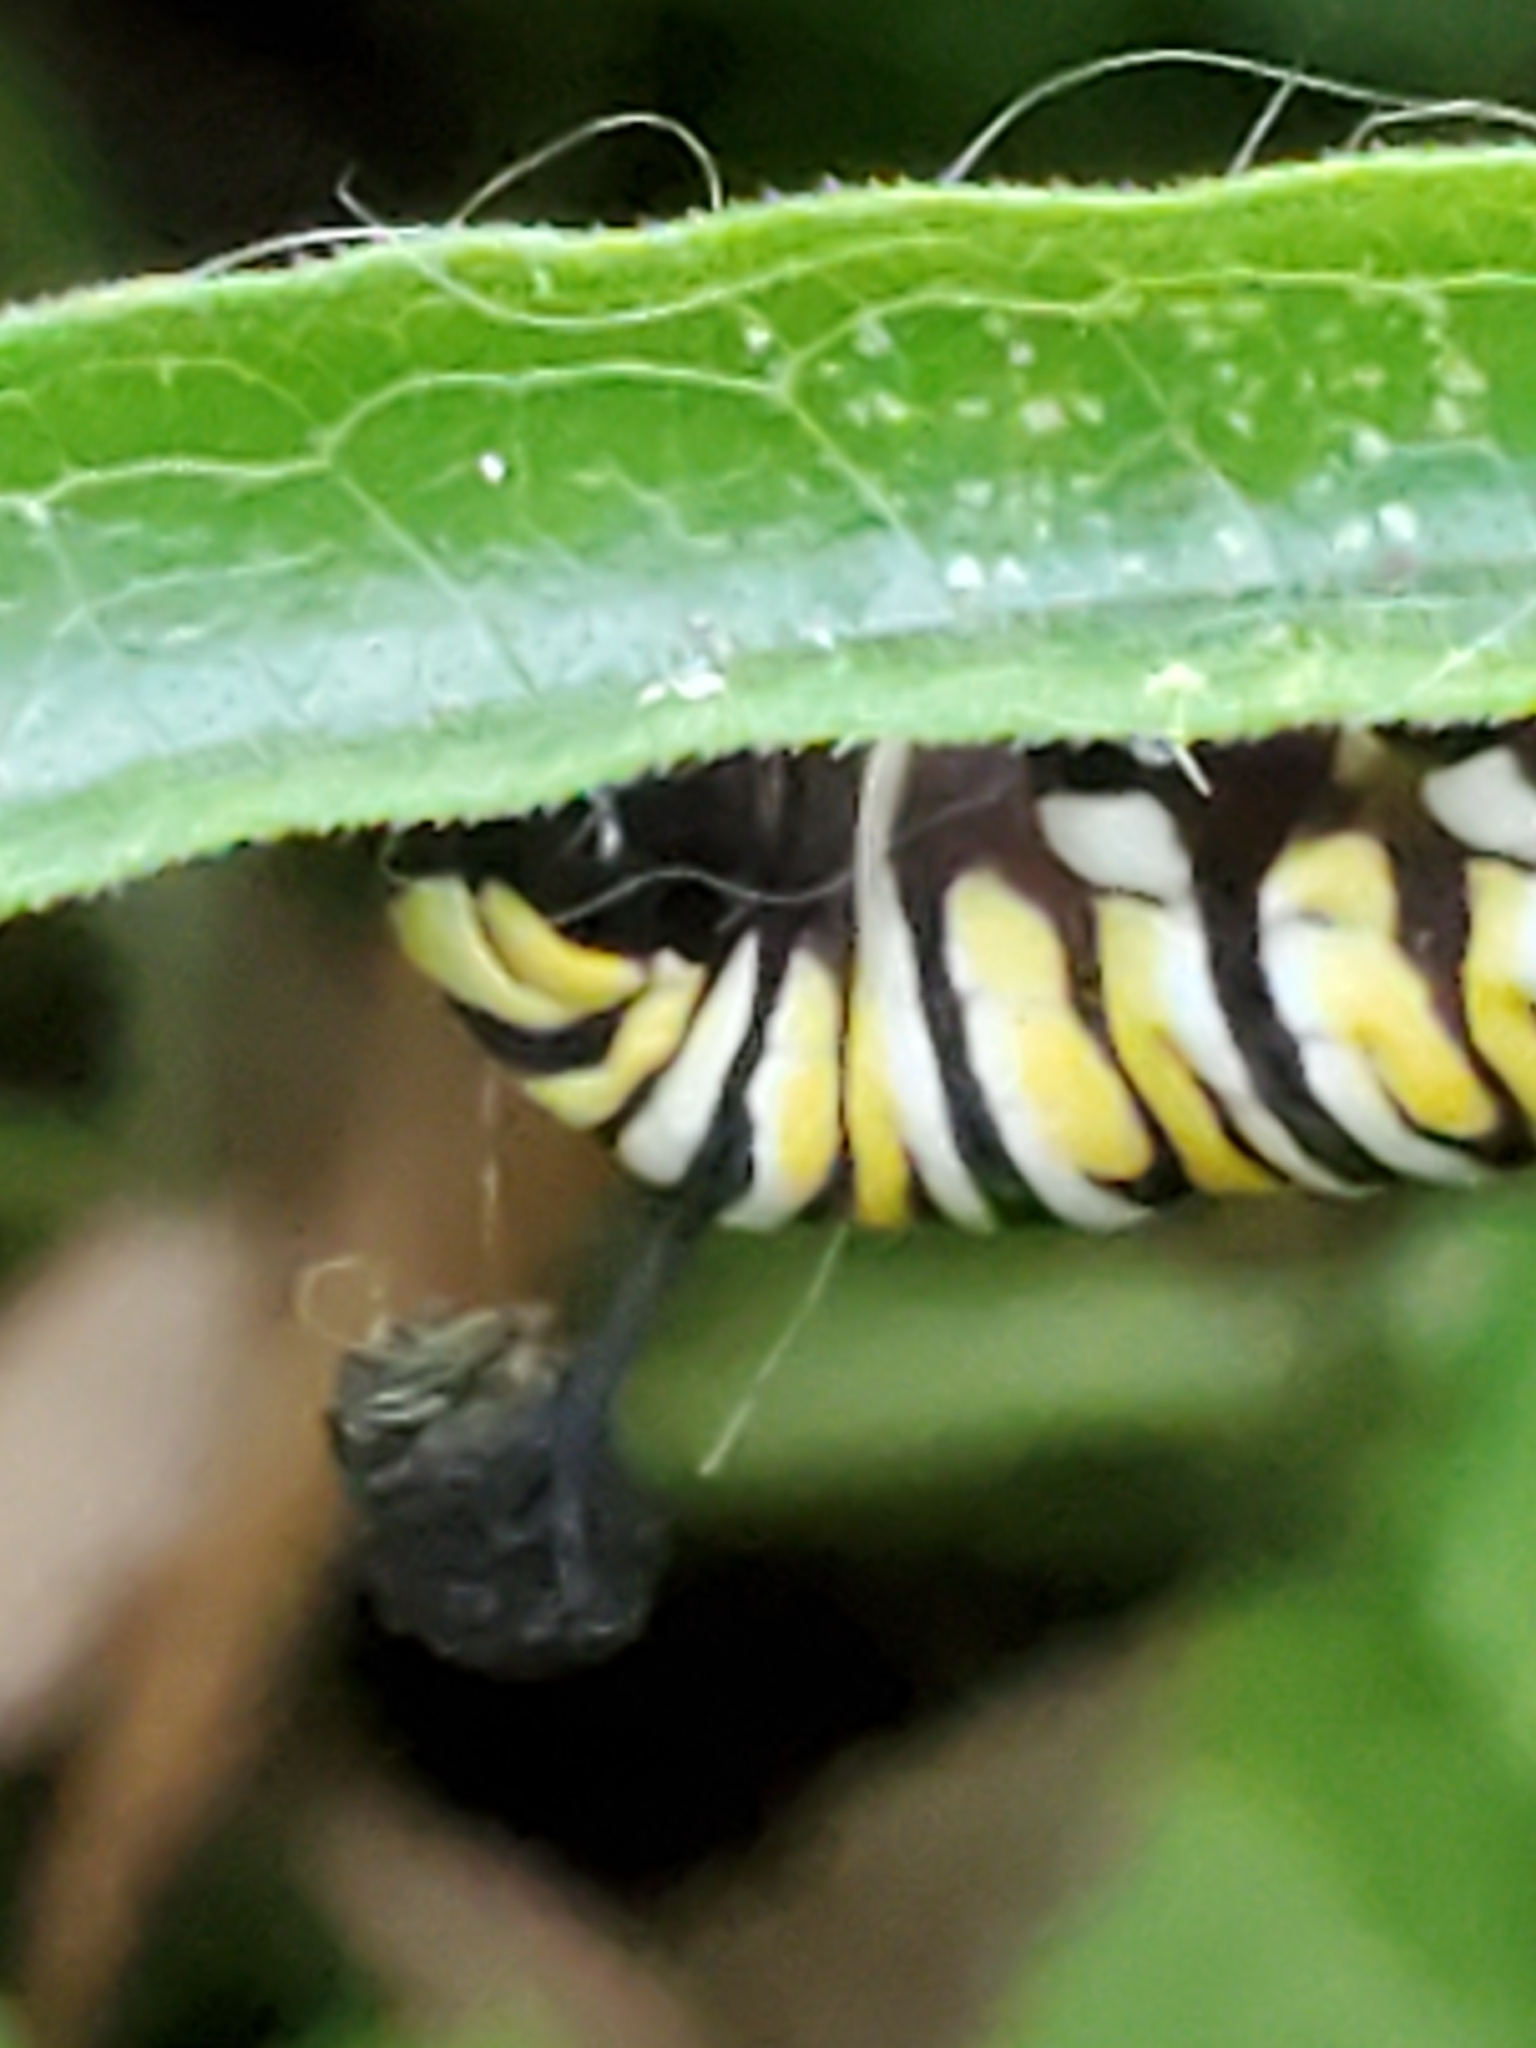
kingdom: Animalia
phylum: Arthropoda
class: Insecta
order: Lepidoptera
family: Nymphalidae
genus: Danaus
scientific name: Danaus plexippus
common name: Monarch
